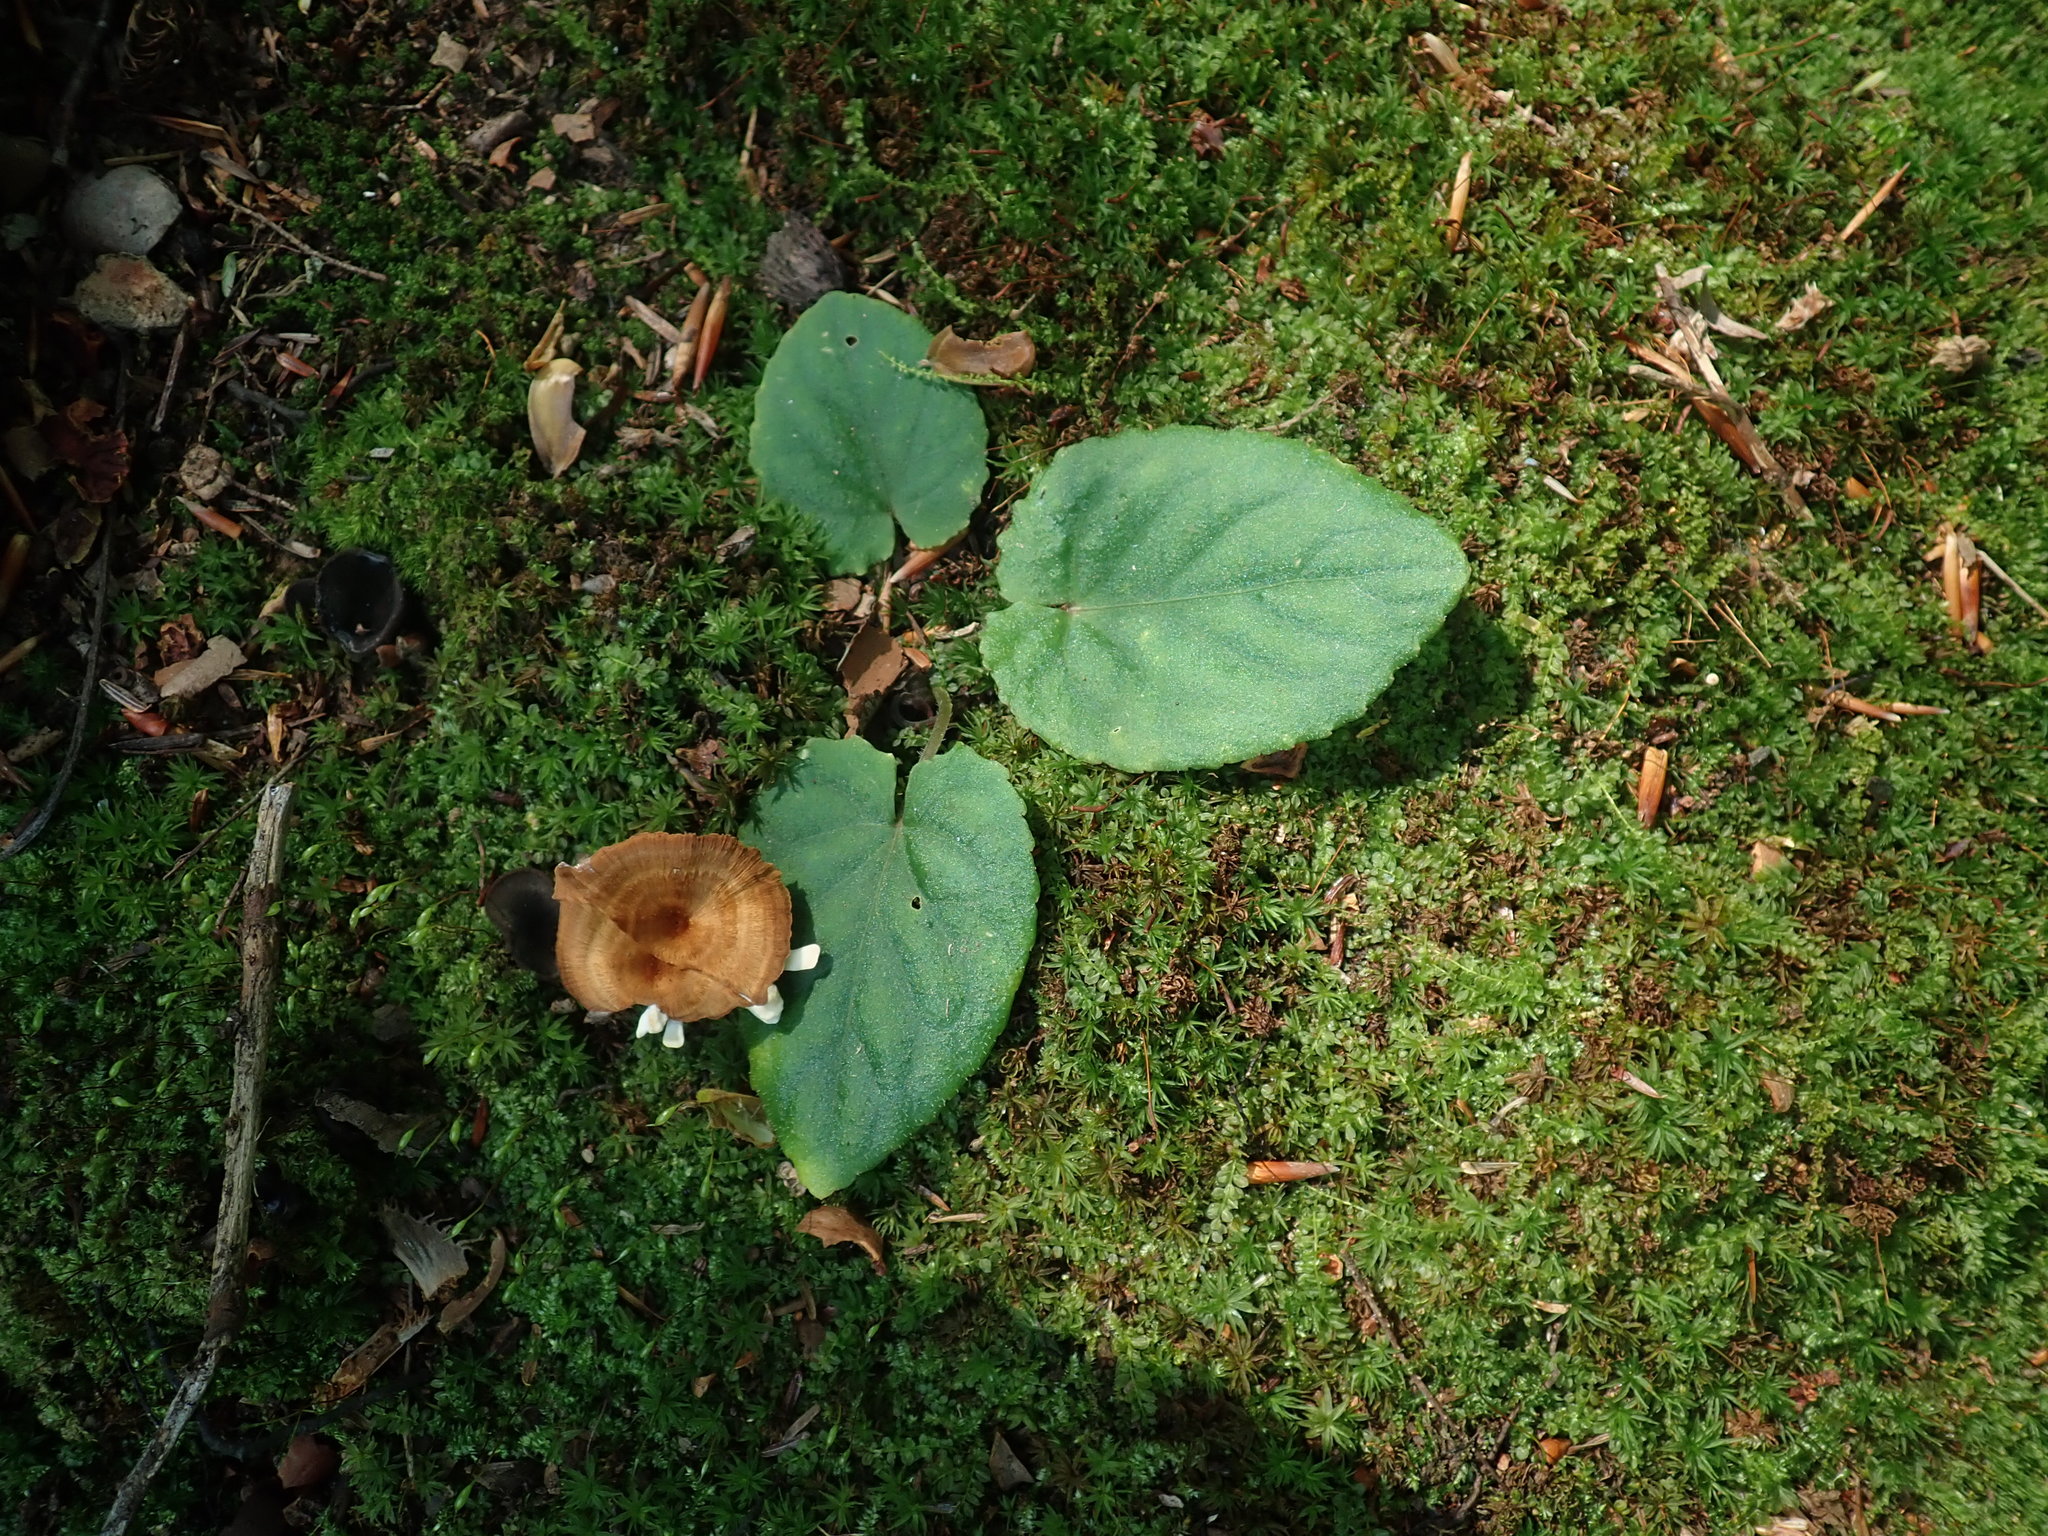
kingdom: Plantae
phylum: Tracheophyta
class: Magnoliopsida
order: Malpighiales
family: Violaceae
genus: Viola
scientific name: Viola rotundifolia
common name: Early yellow violet
